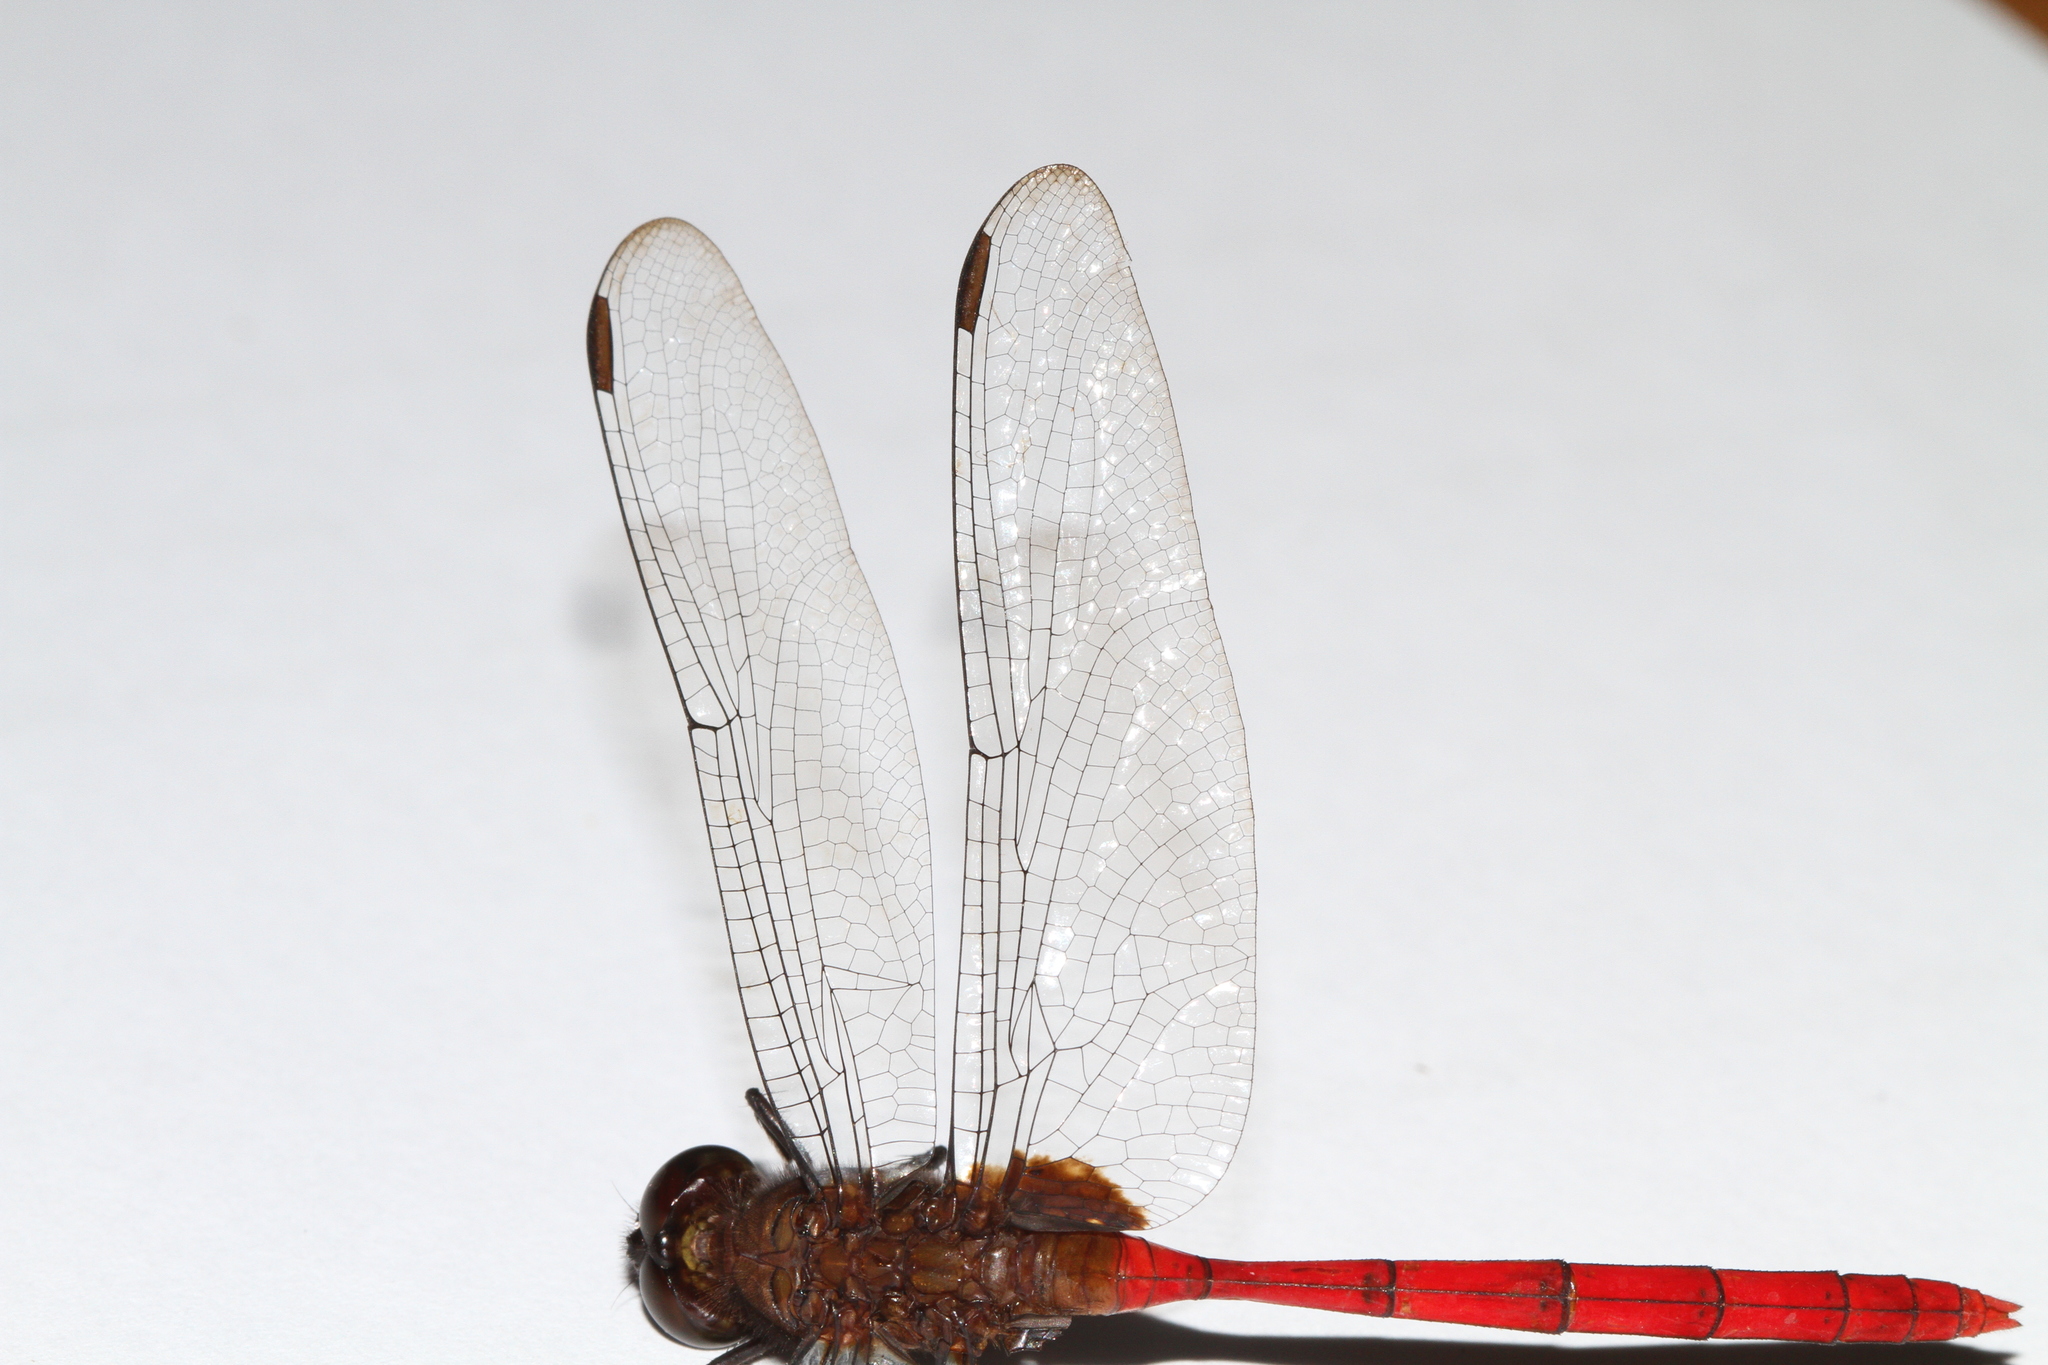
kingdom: Animalia
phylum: Arthropoda
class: Insecta
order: Odonata
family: Libellulidae
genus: Erythemis
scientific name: Erythemis haematogastra
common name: Red pondhawk
